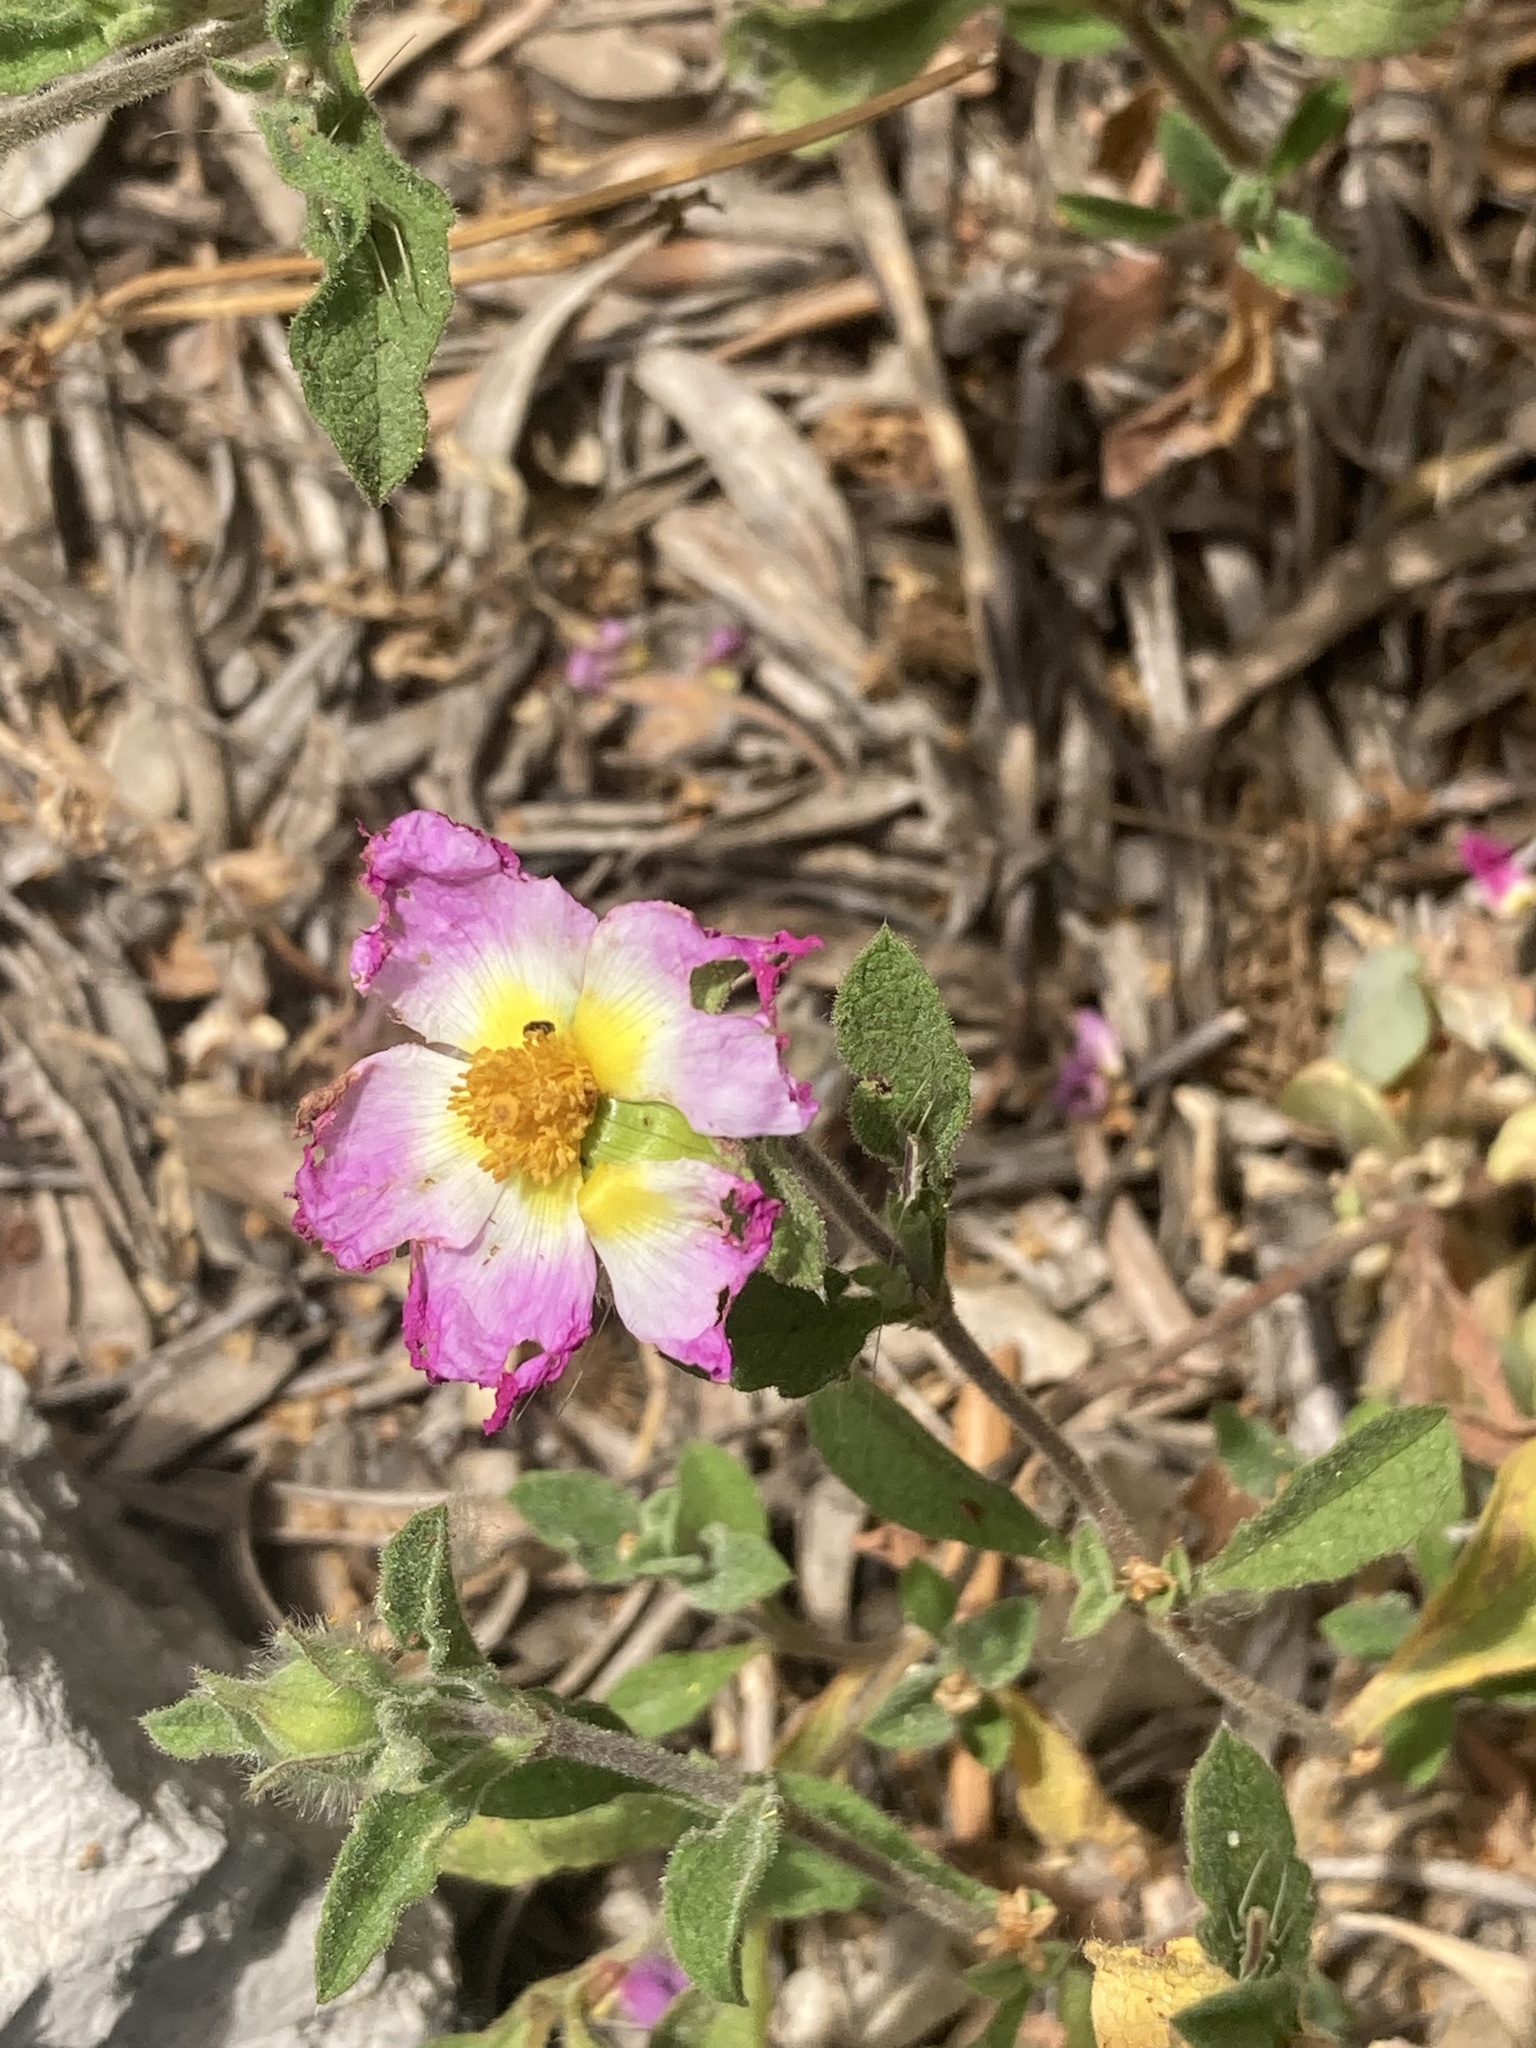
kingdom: Plantae
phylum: Tracheophyta
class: Magnoliopsida
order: Malvales
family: Cistaceae
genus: Cistus
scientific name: Cistus creticus
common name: Cretan rockrose
